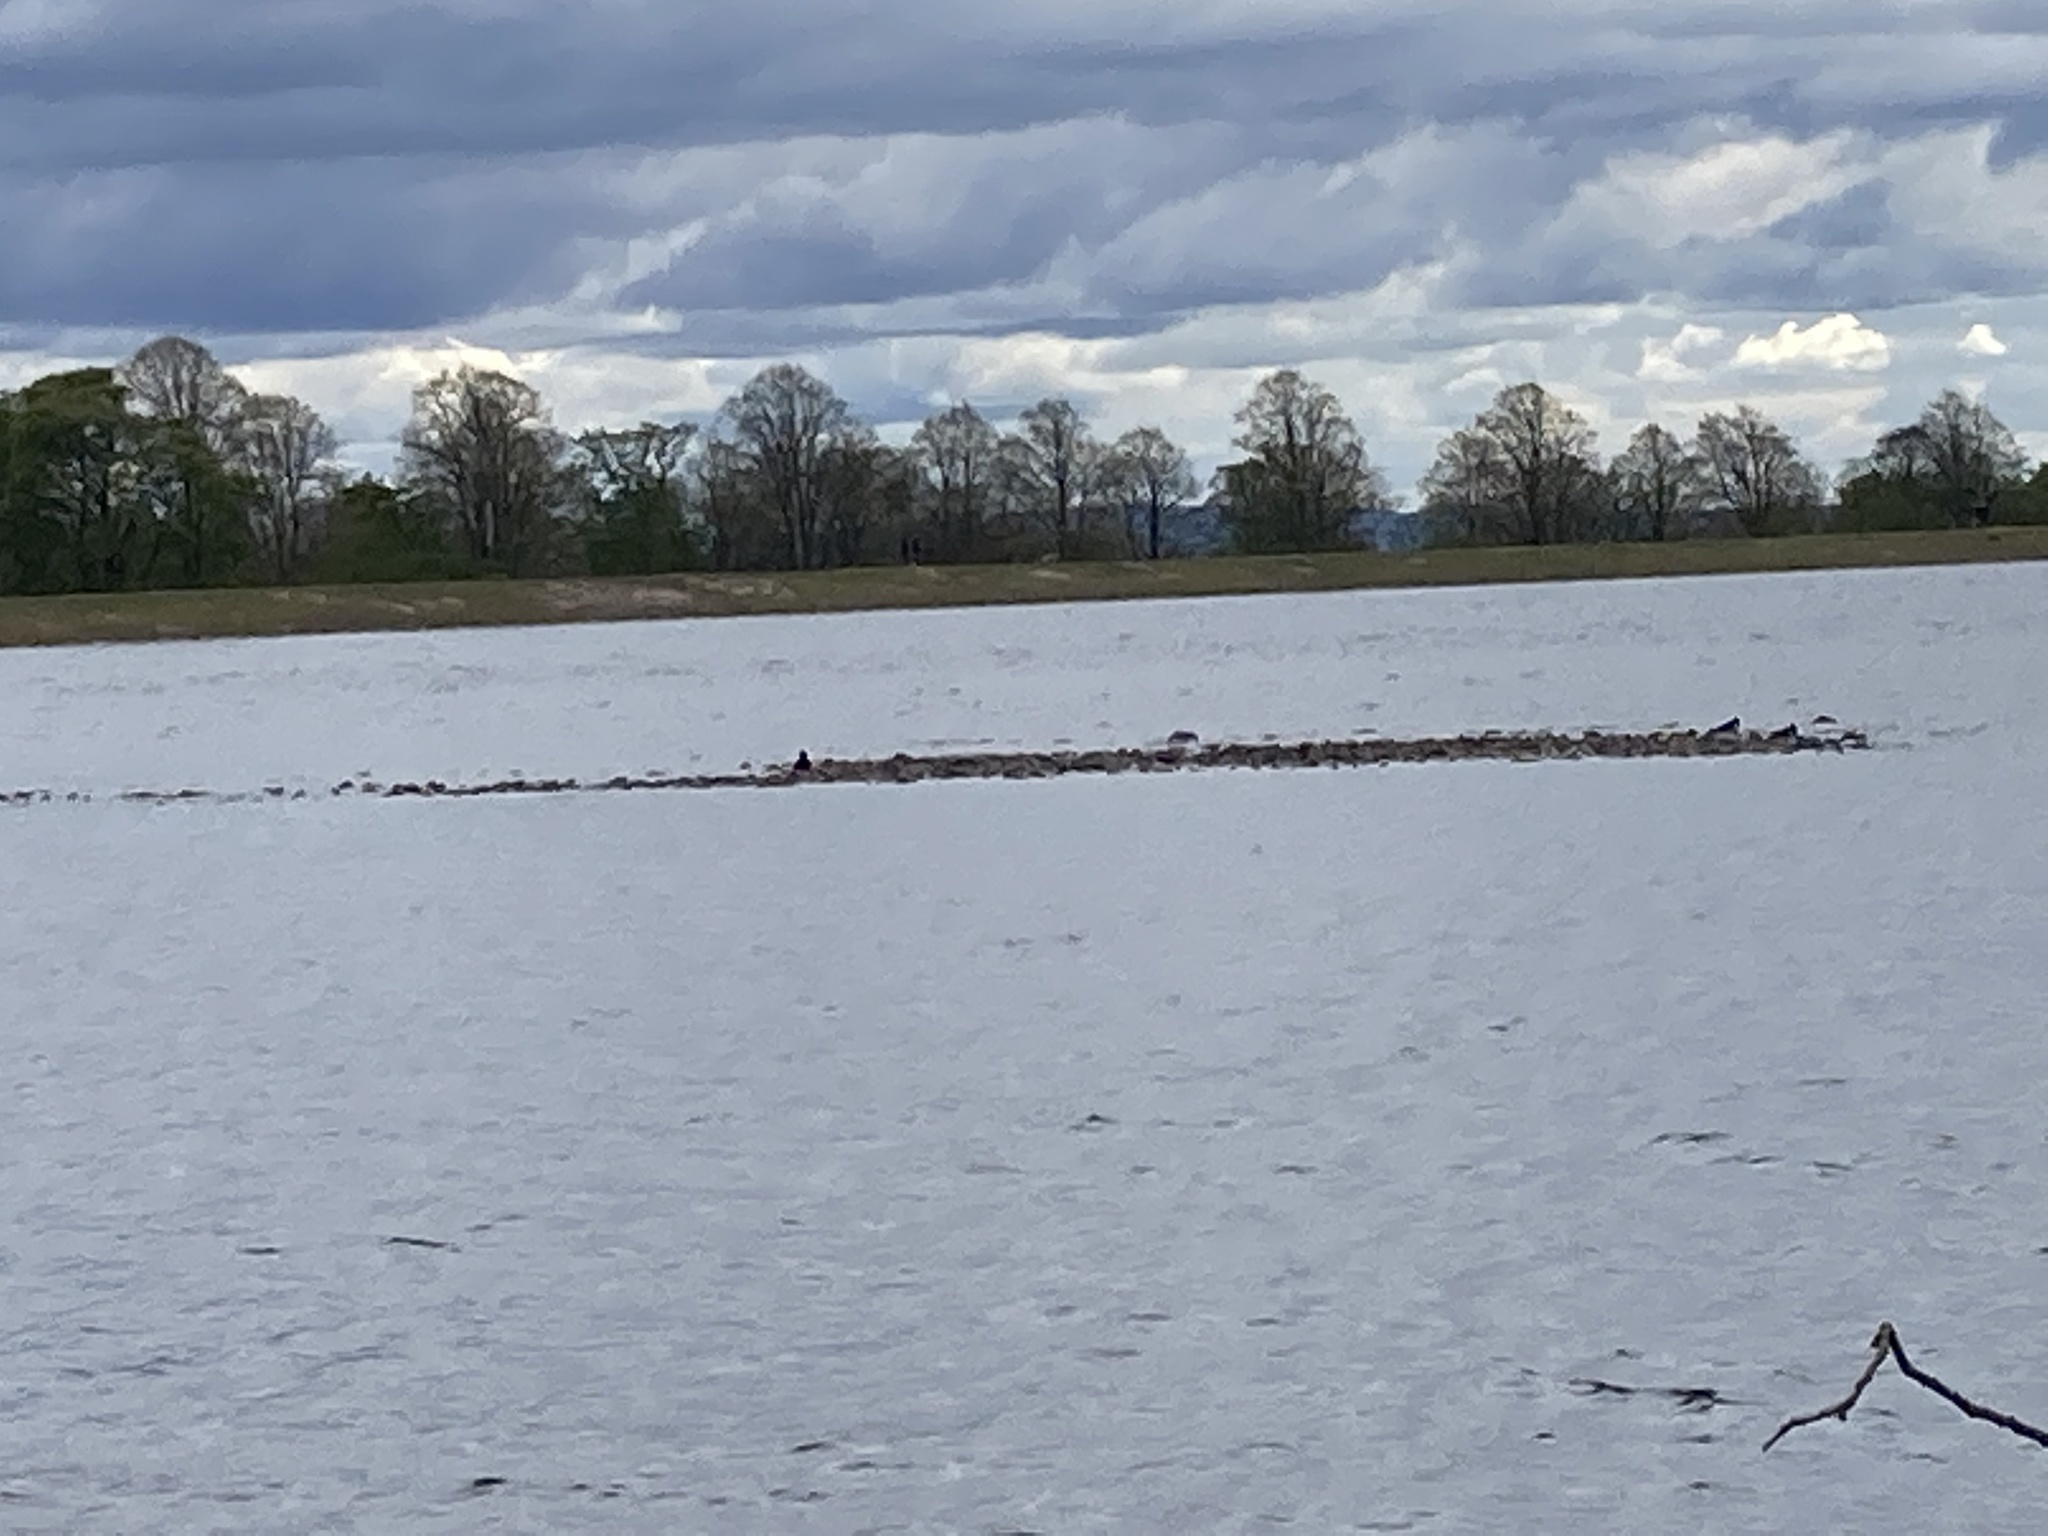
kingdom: Animalia
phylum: Chordata
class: Aves
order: Charadriiformes
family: Haematopodidae
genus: Haematopus
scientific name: Haematopus ostralegus
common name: Eurasian oystercatcher
